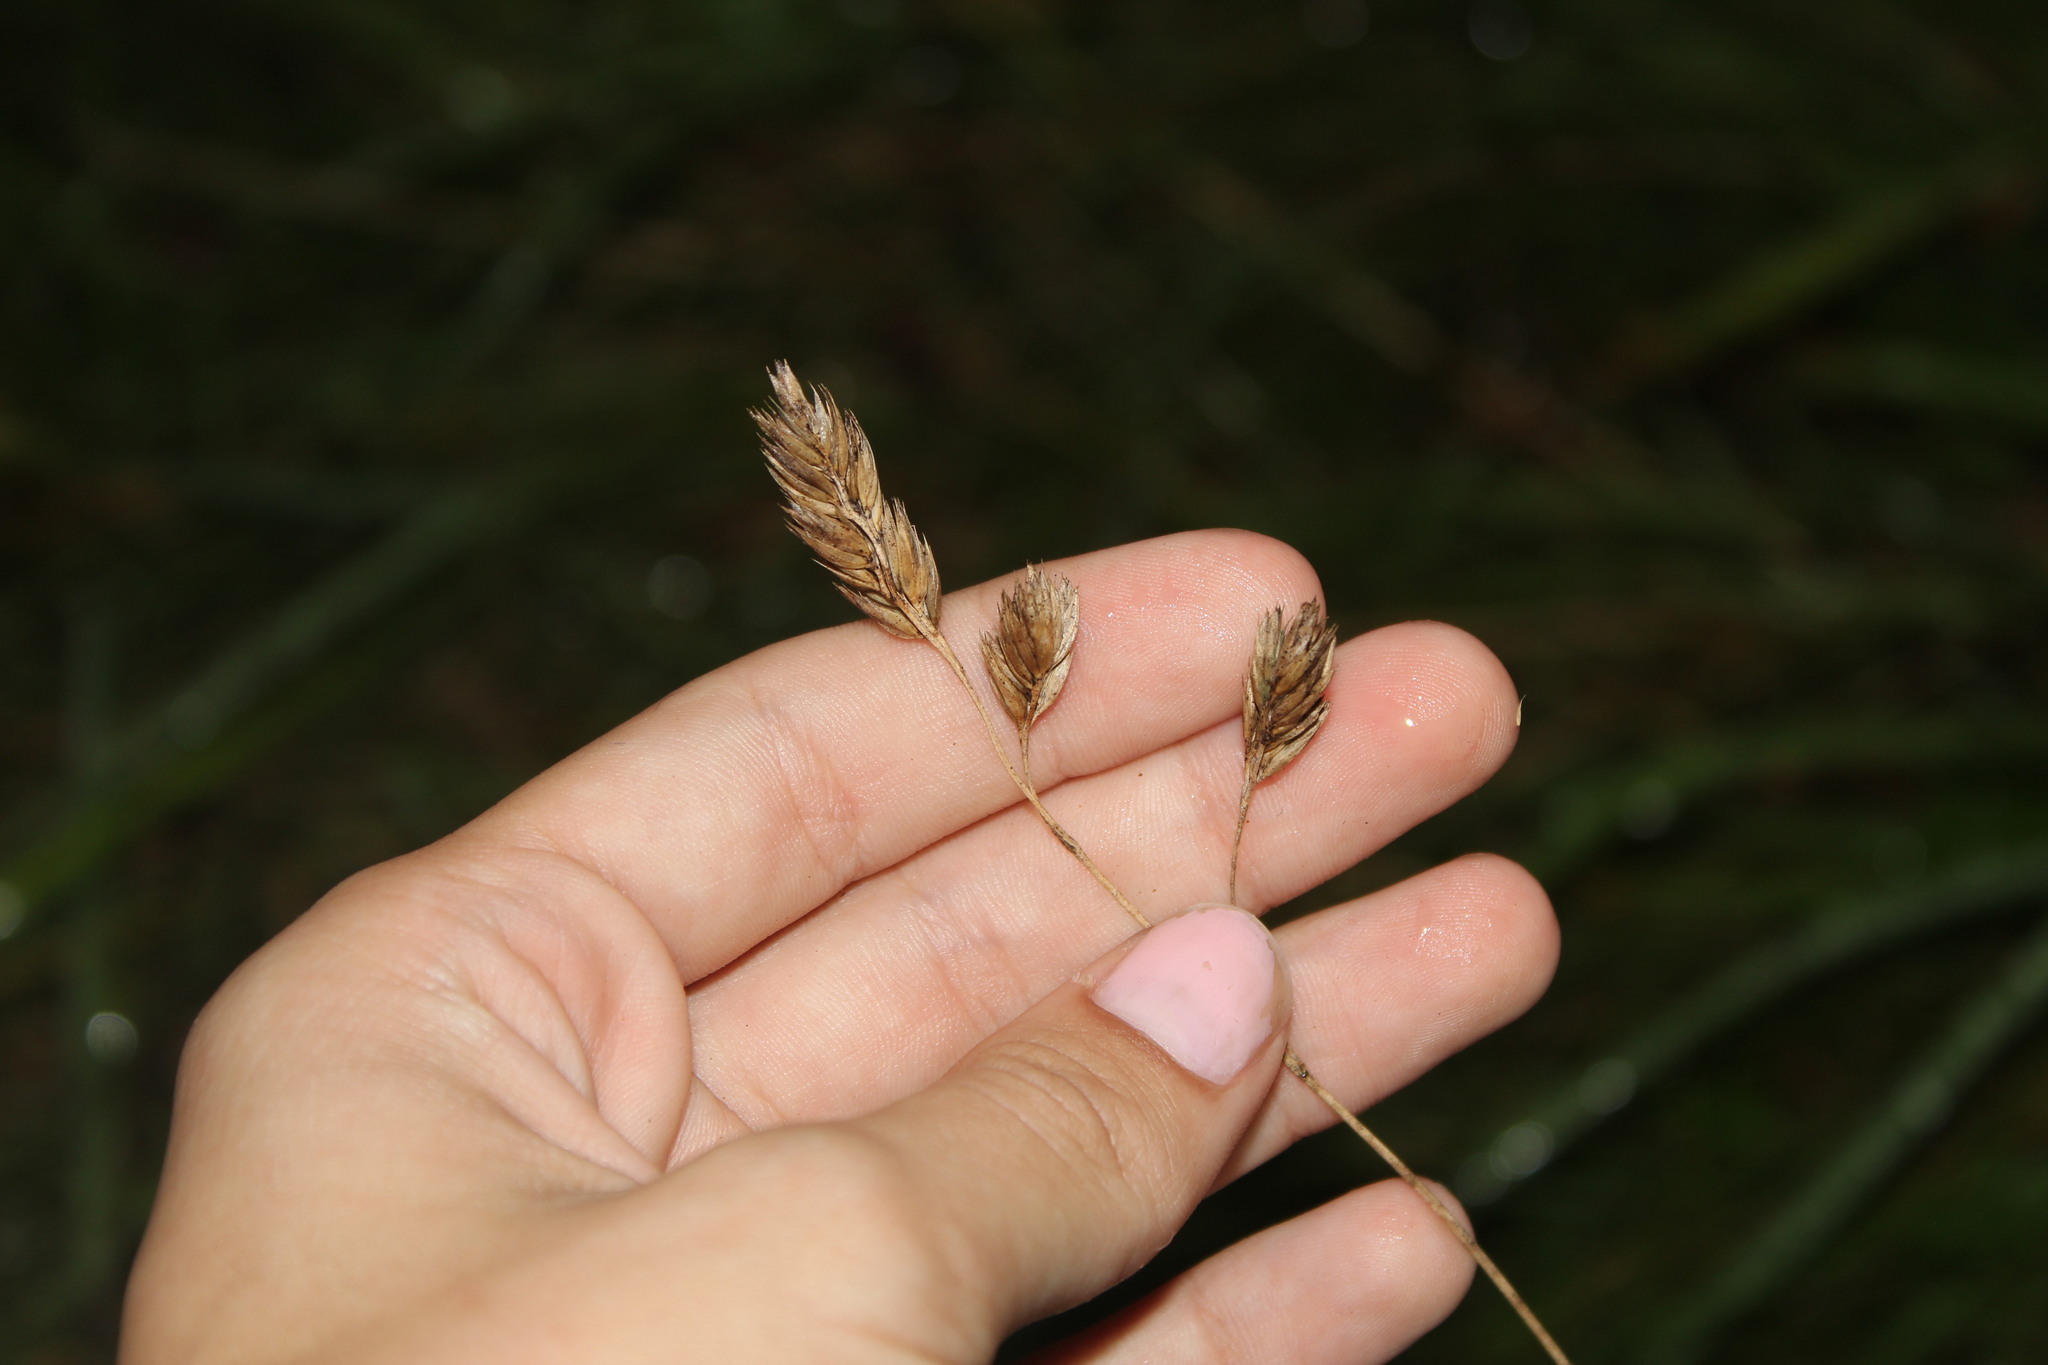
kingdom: Plantae
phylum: Tracheophyta
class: Liliopsida
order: Poales
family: Poaceae
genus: Dactylis
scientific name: Dactylis glomerata
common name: Orchardgrass
